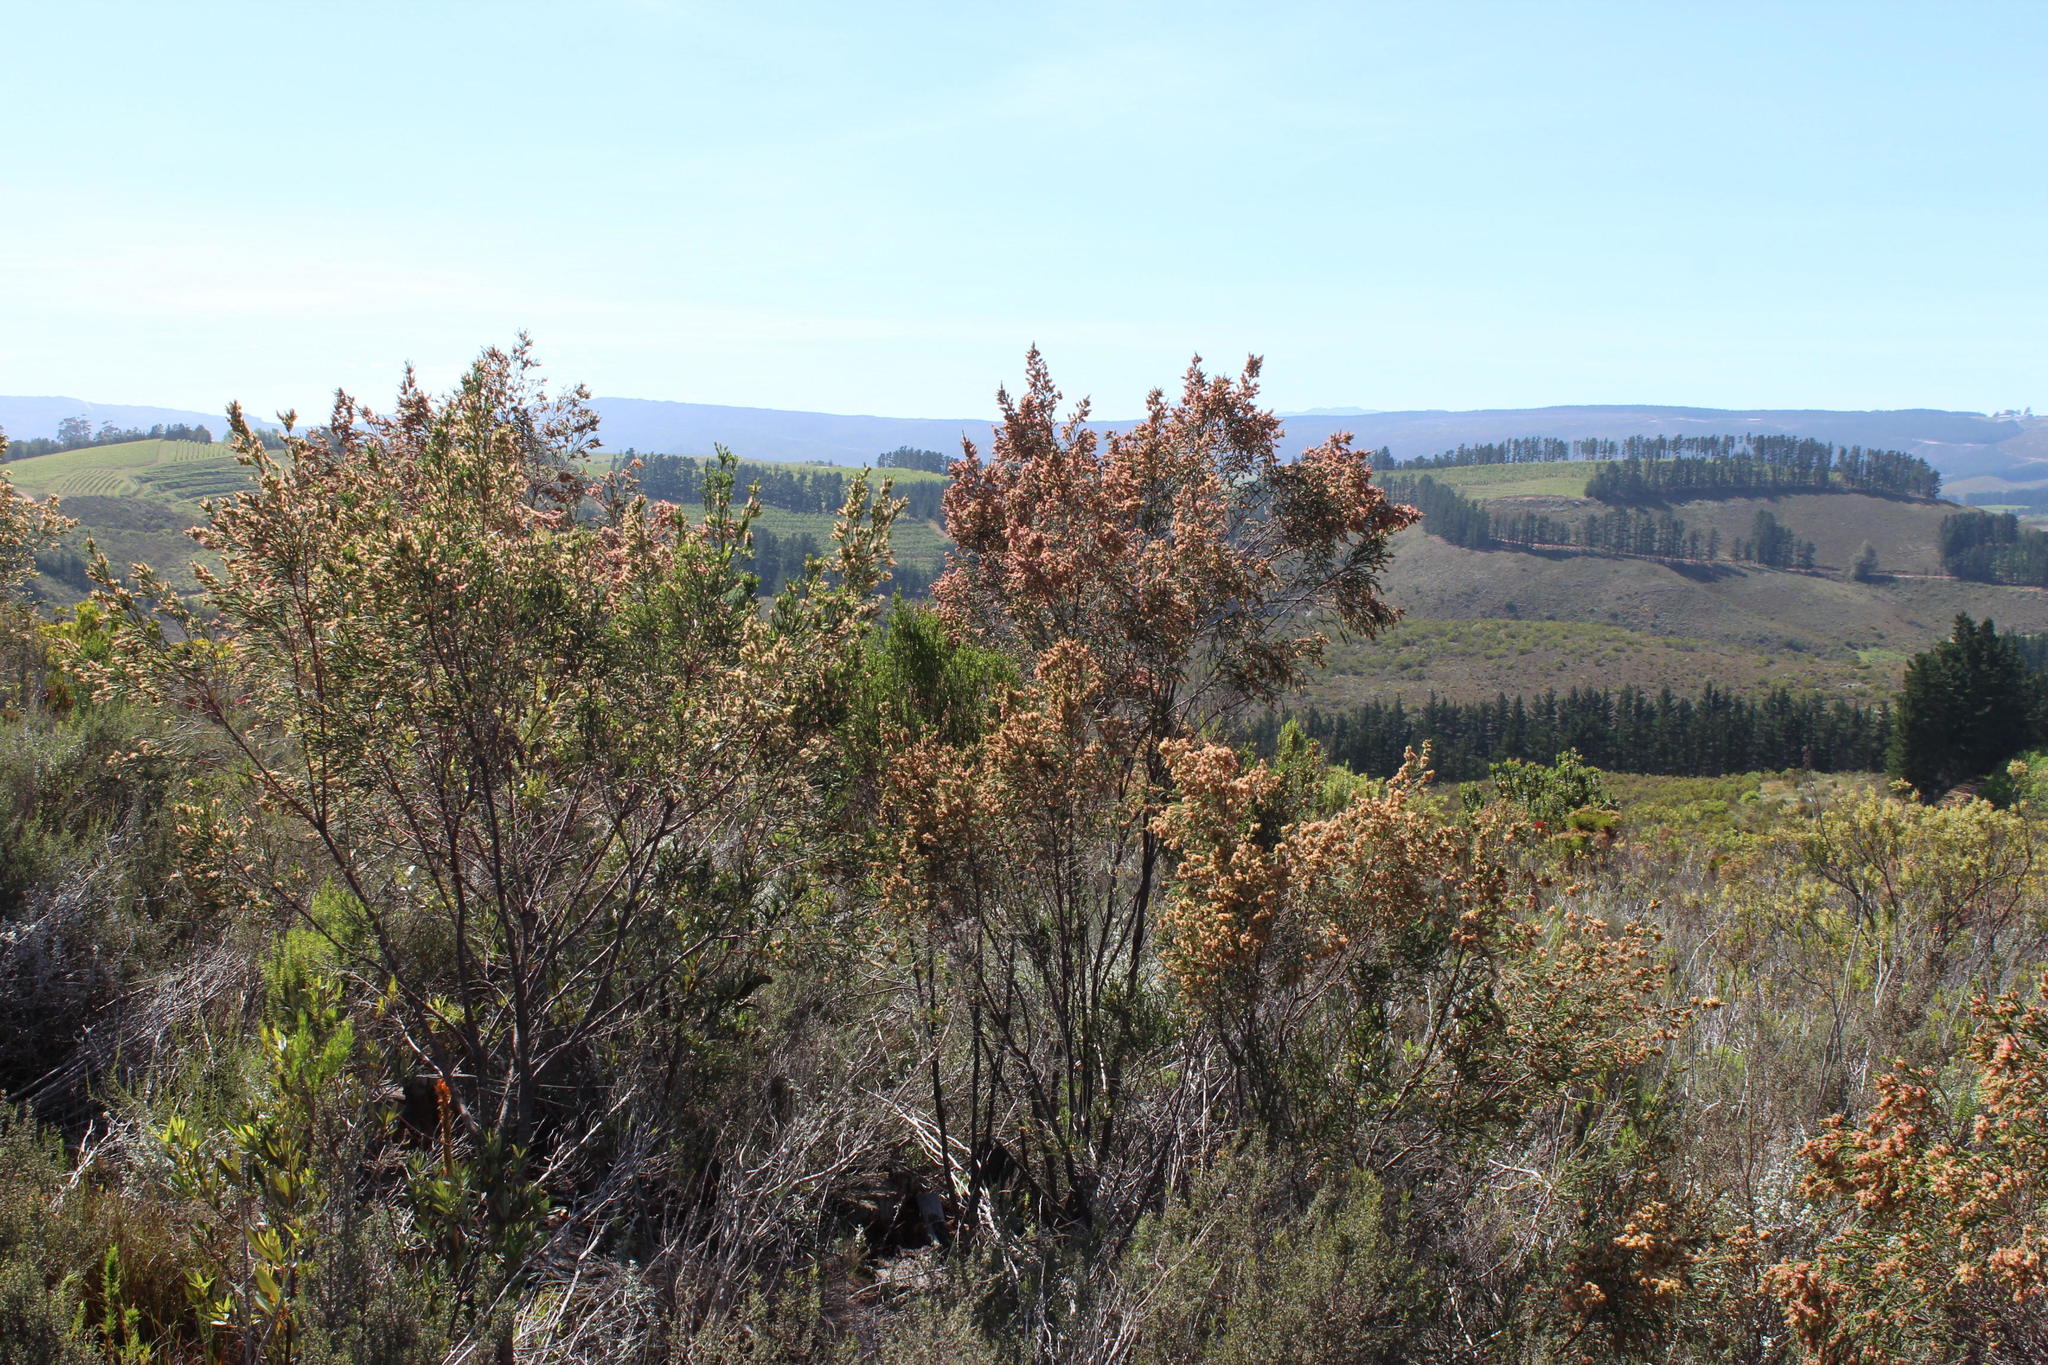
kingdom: Plantae
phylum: Tracheophyta
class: Magnoliopsida
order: Malvales
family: Thymelaeaceae
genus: Passerina
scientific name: Passerina corymbosa
